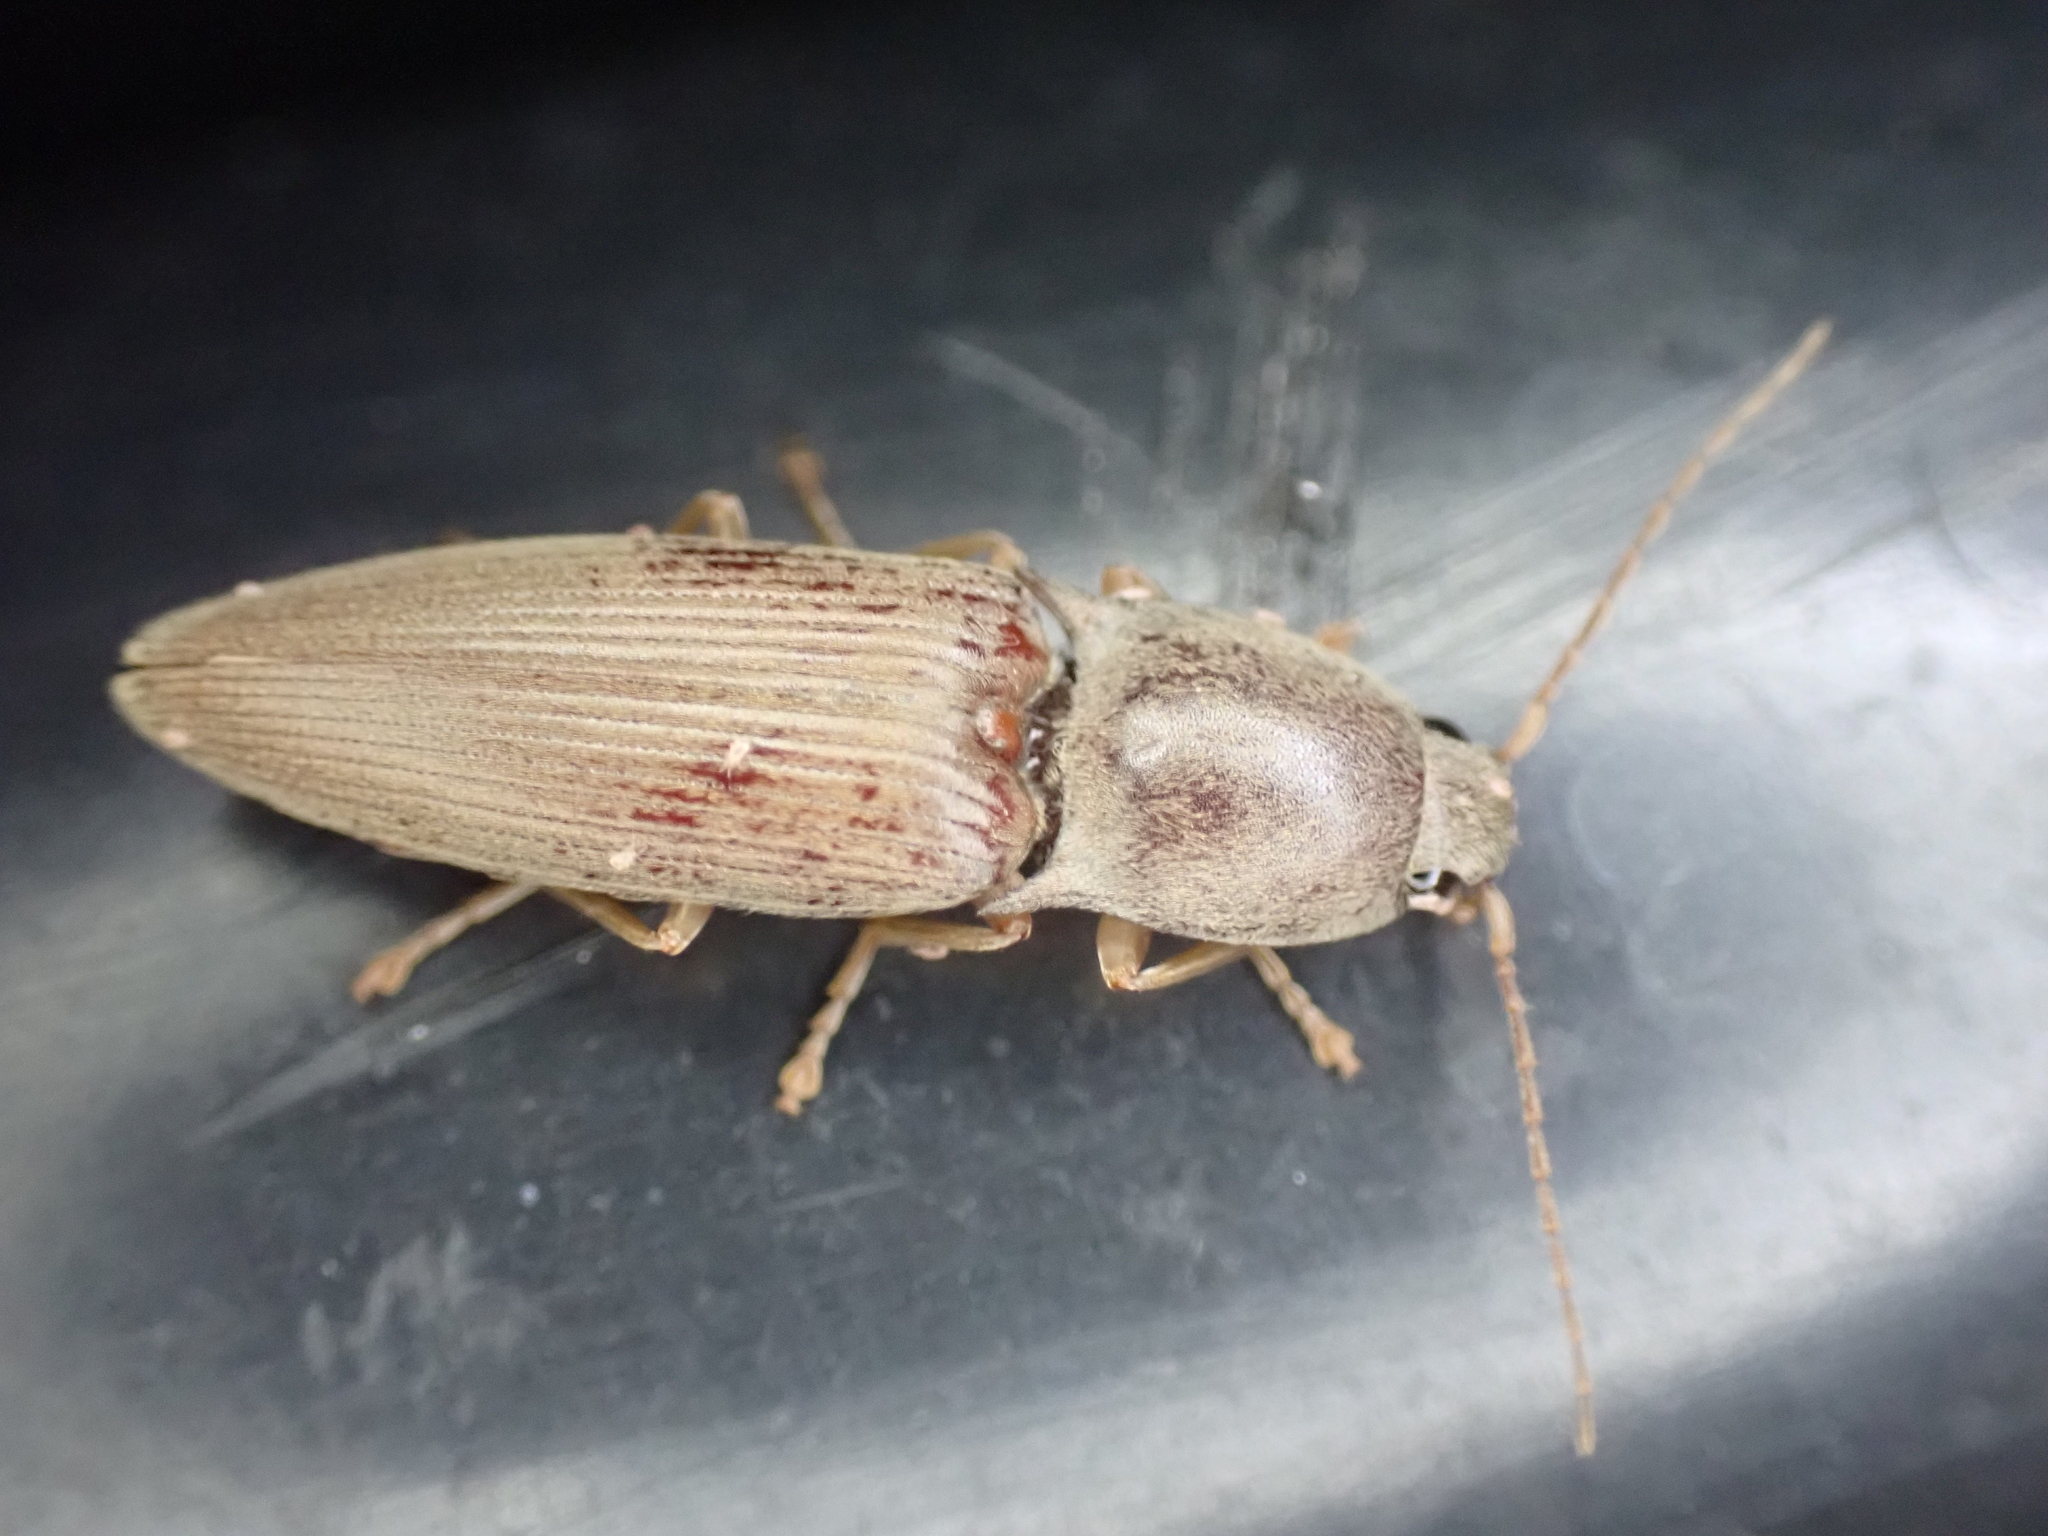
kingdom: Animalia
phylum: Arthropoda
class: Insecta
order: Coleoptera
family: Elateridae
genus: Monocrepidius
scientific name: Monocrepidius lividus
